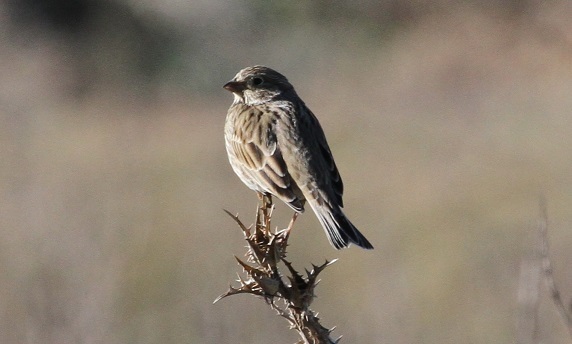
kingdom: Animalia
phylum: Chordata
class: Aves
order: Passeriformes
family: Emberizidae
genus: Emberiza
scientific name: Emberiza calandra
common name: Corn bunting
